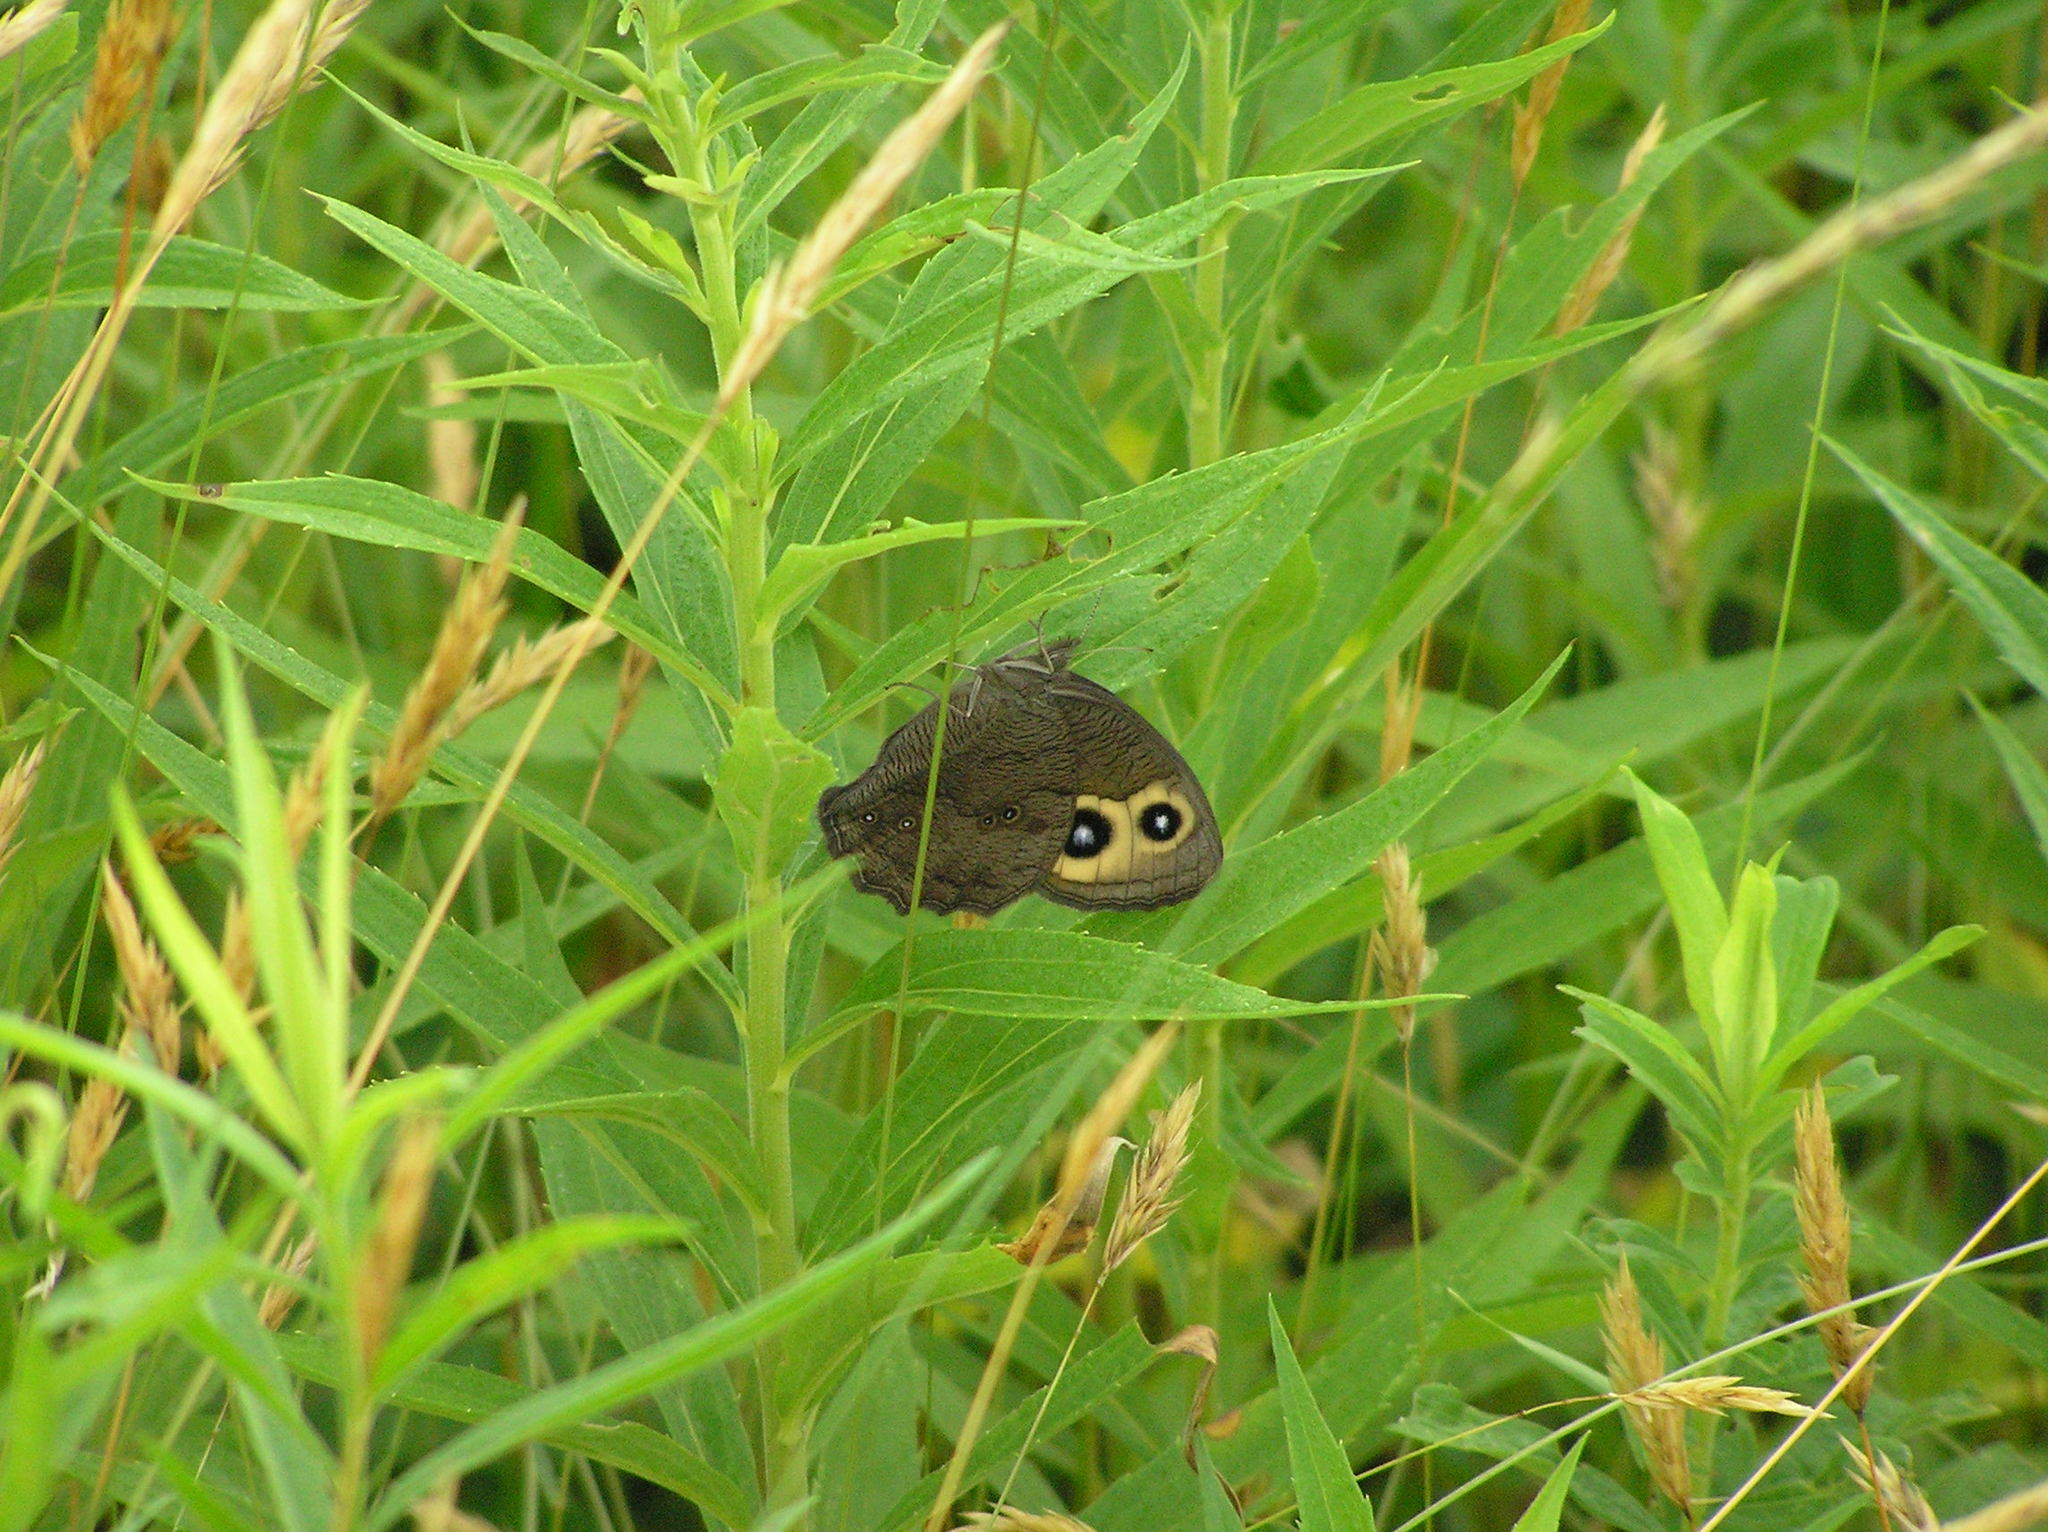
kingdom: Animalia
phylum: Arthropoda
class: Insecta
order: Lepidoptera
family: Nymphalidae
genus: Cercyonis
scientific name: Cercyonis pegala
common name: Common wood-nymph
